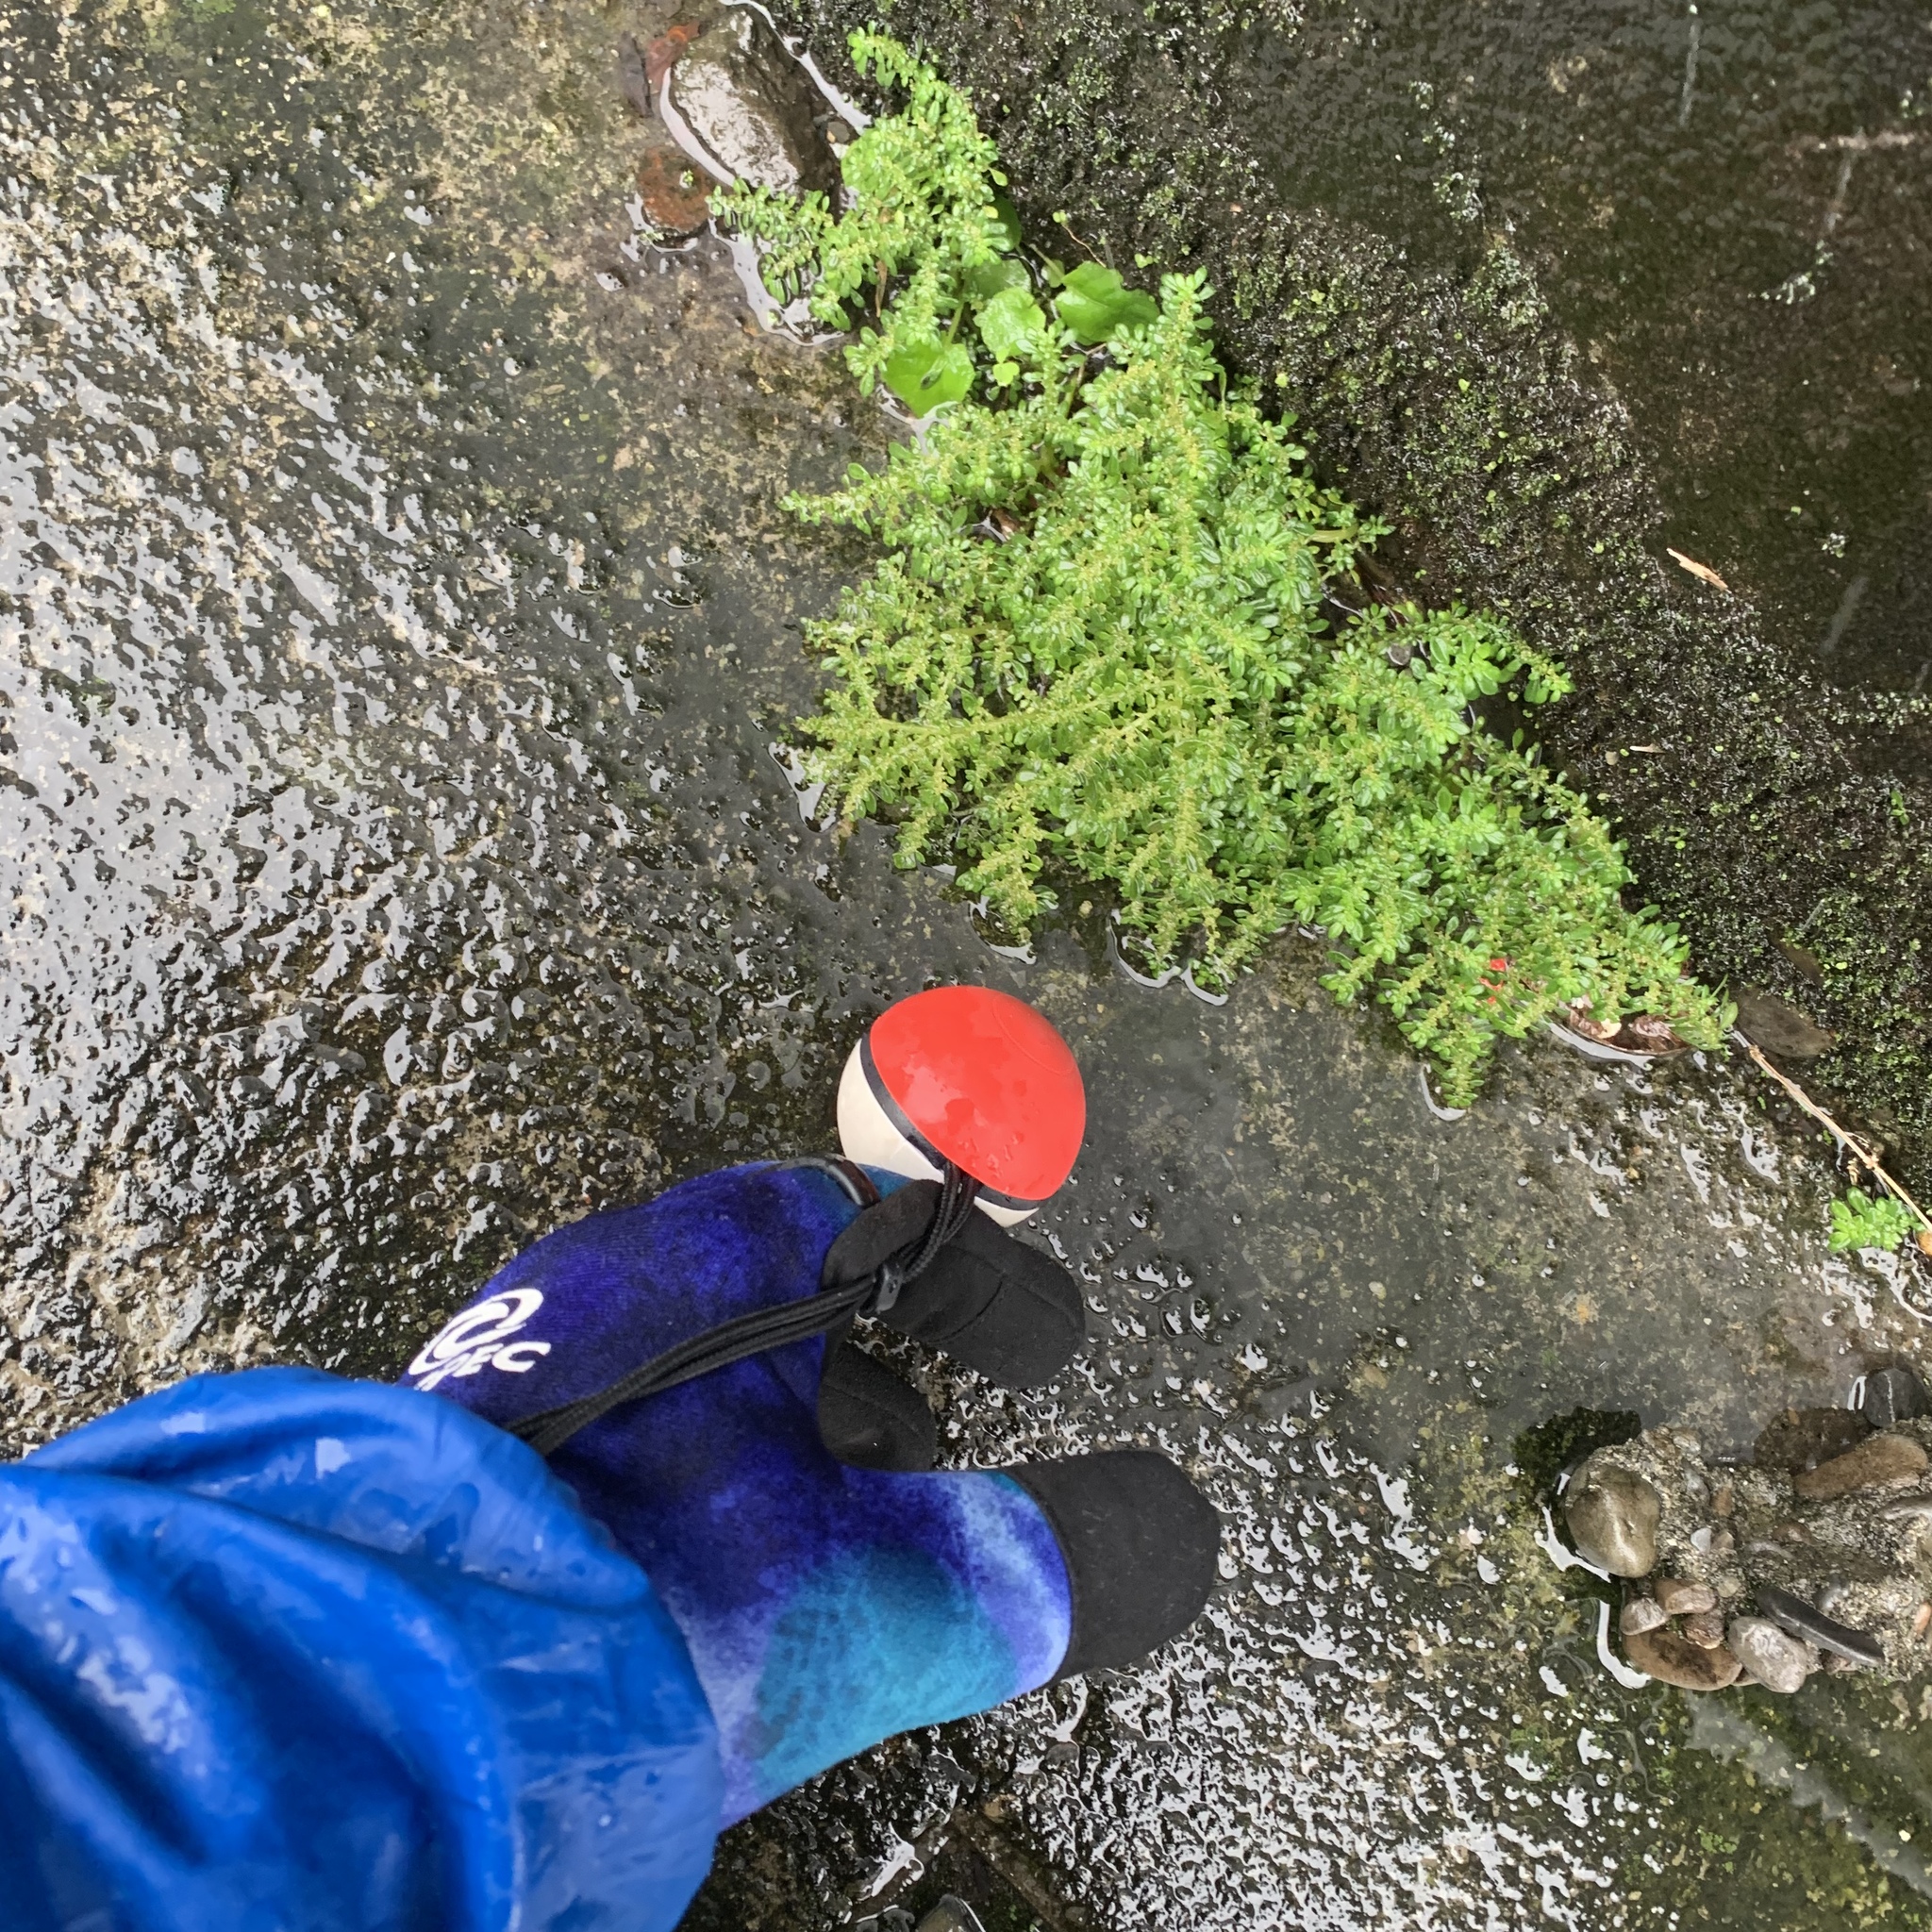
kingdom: Plantae
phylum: Tracheophyta
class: Magnoliopsida
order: Rosales
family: Urticaceae
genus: Pilea
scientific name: Pilea microphylla
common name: Artillery-plant
